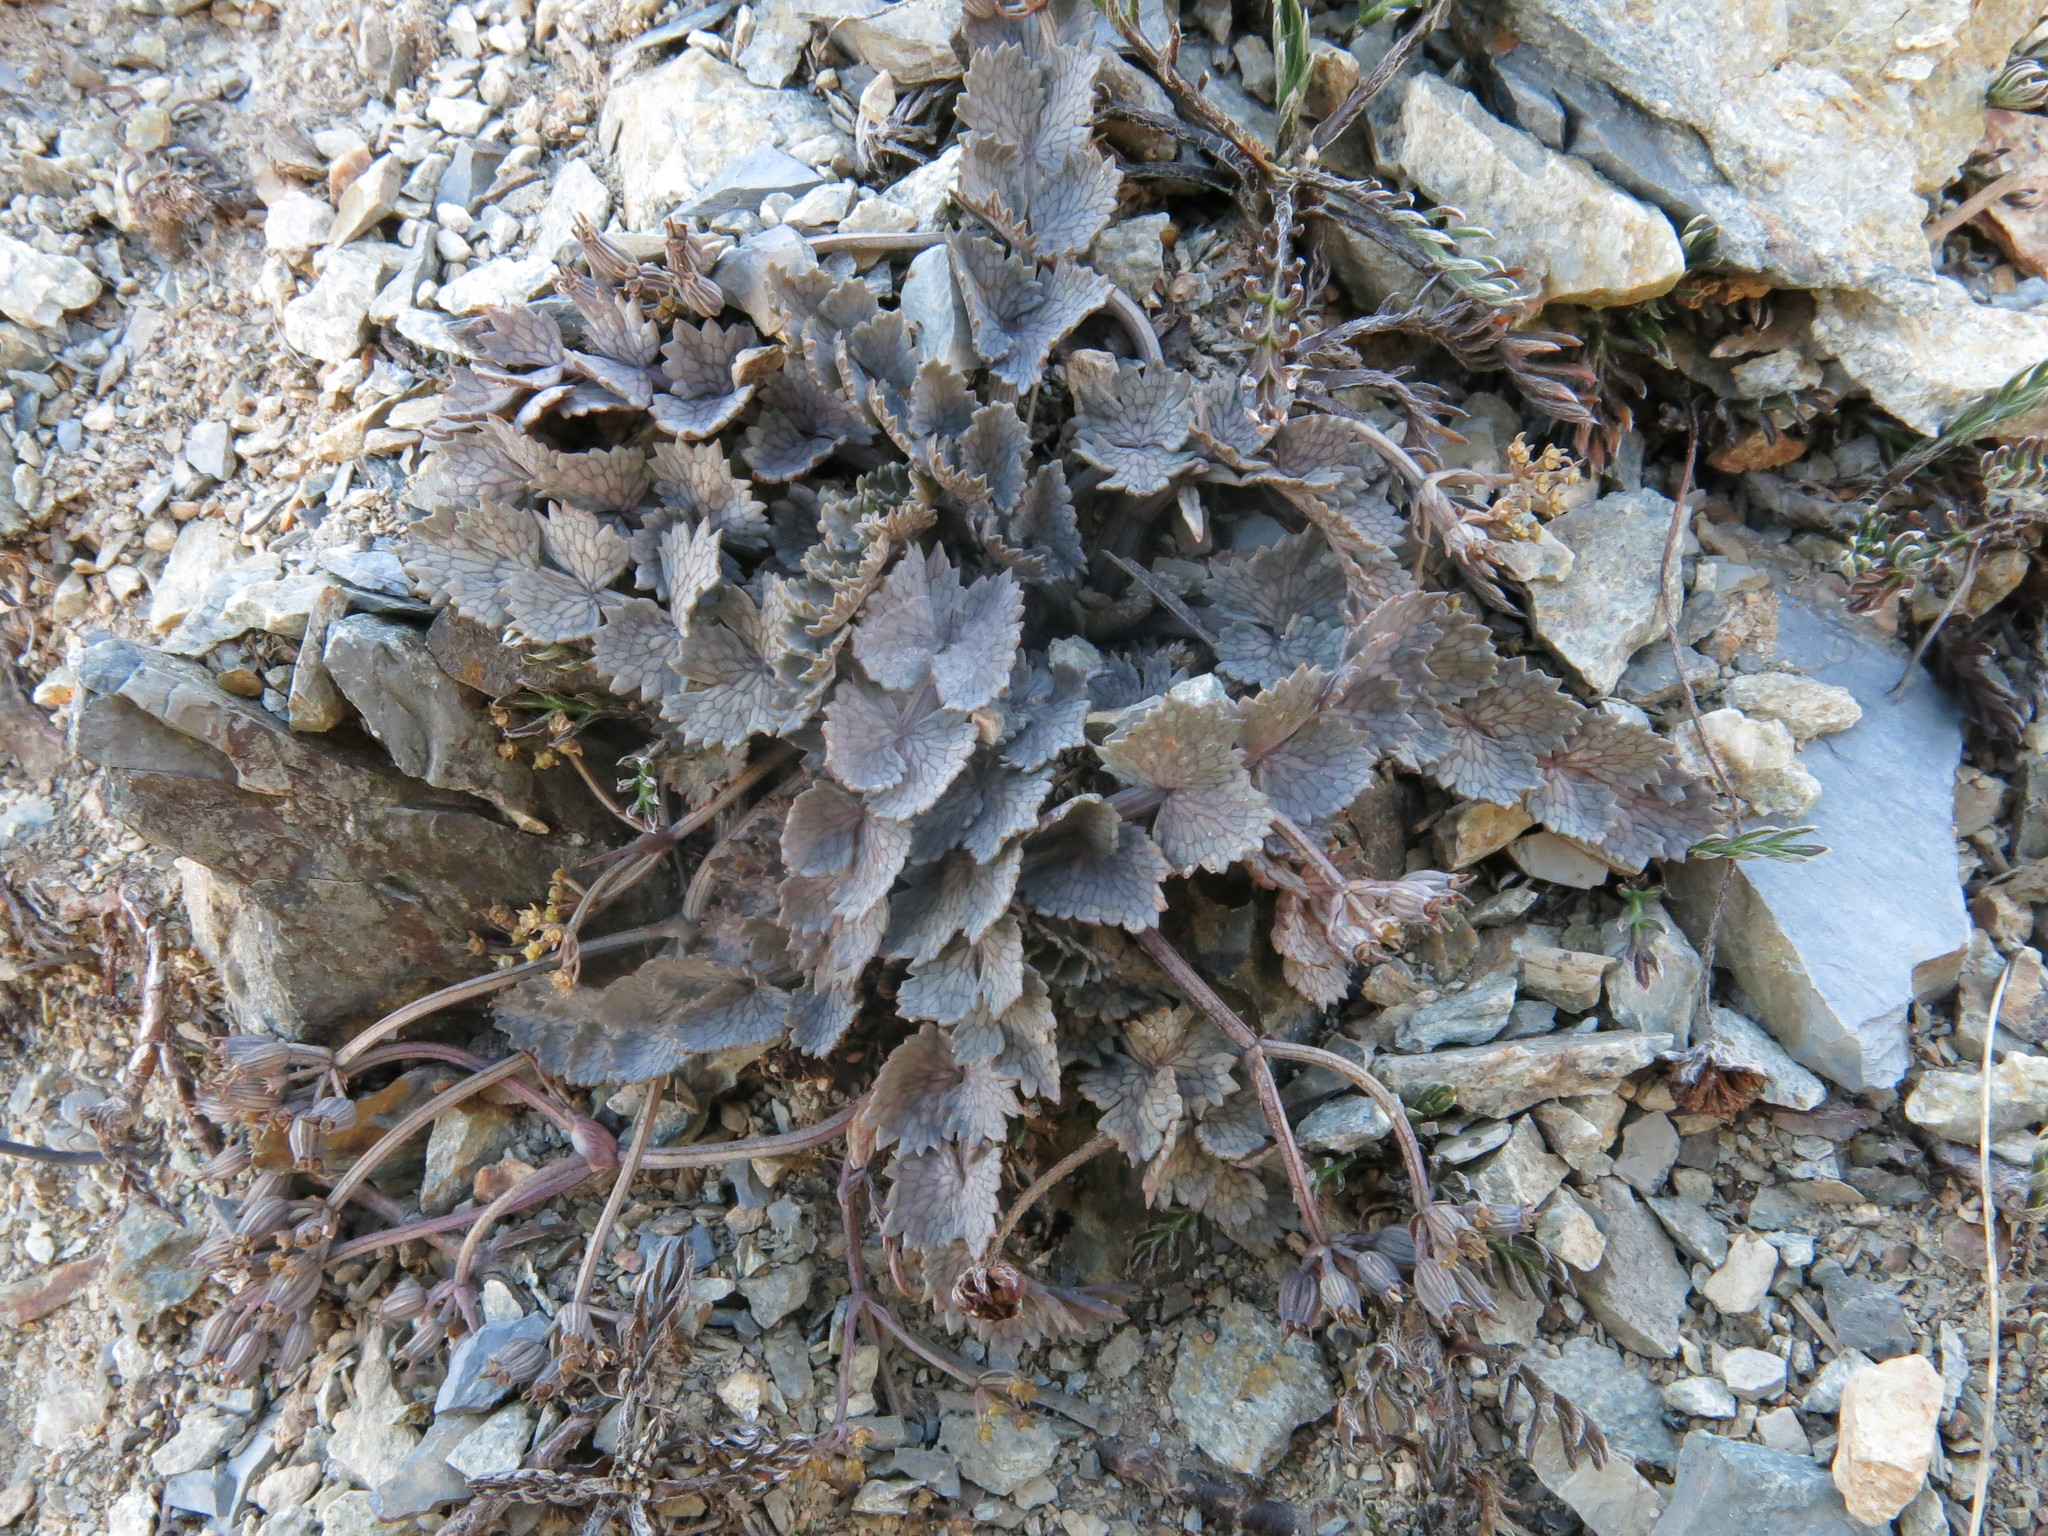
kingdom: Plantae
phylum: Tracheophyta
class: Magnoliopsida
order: Apiales
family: Apiaceae
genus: Gingidia
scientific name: Gingidia enysii
